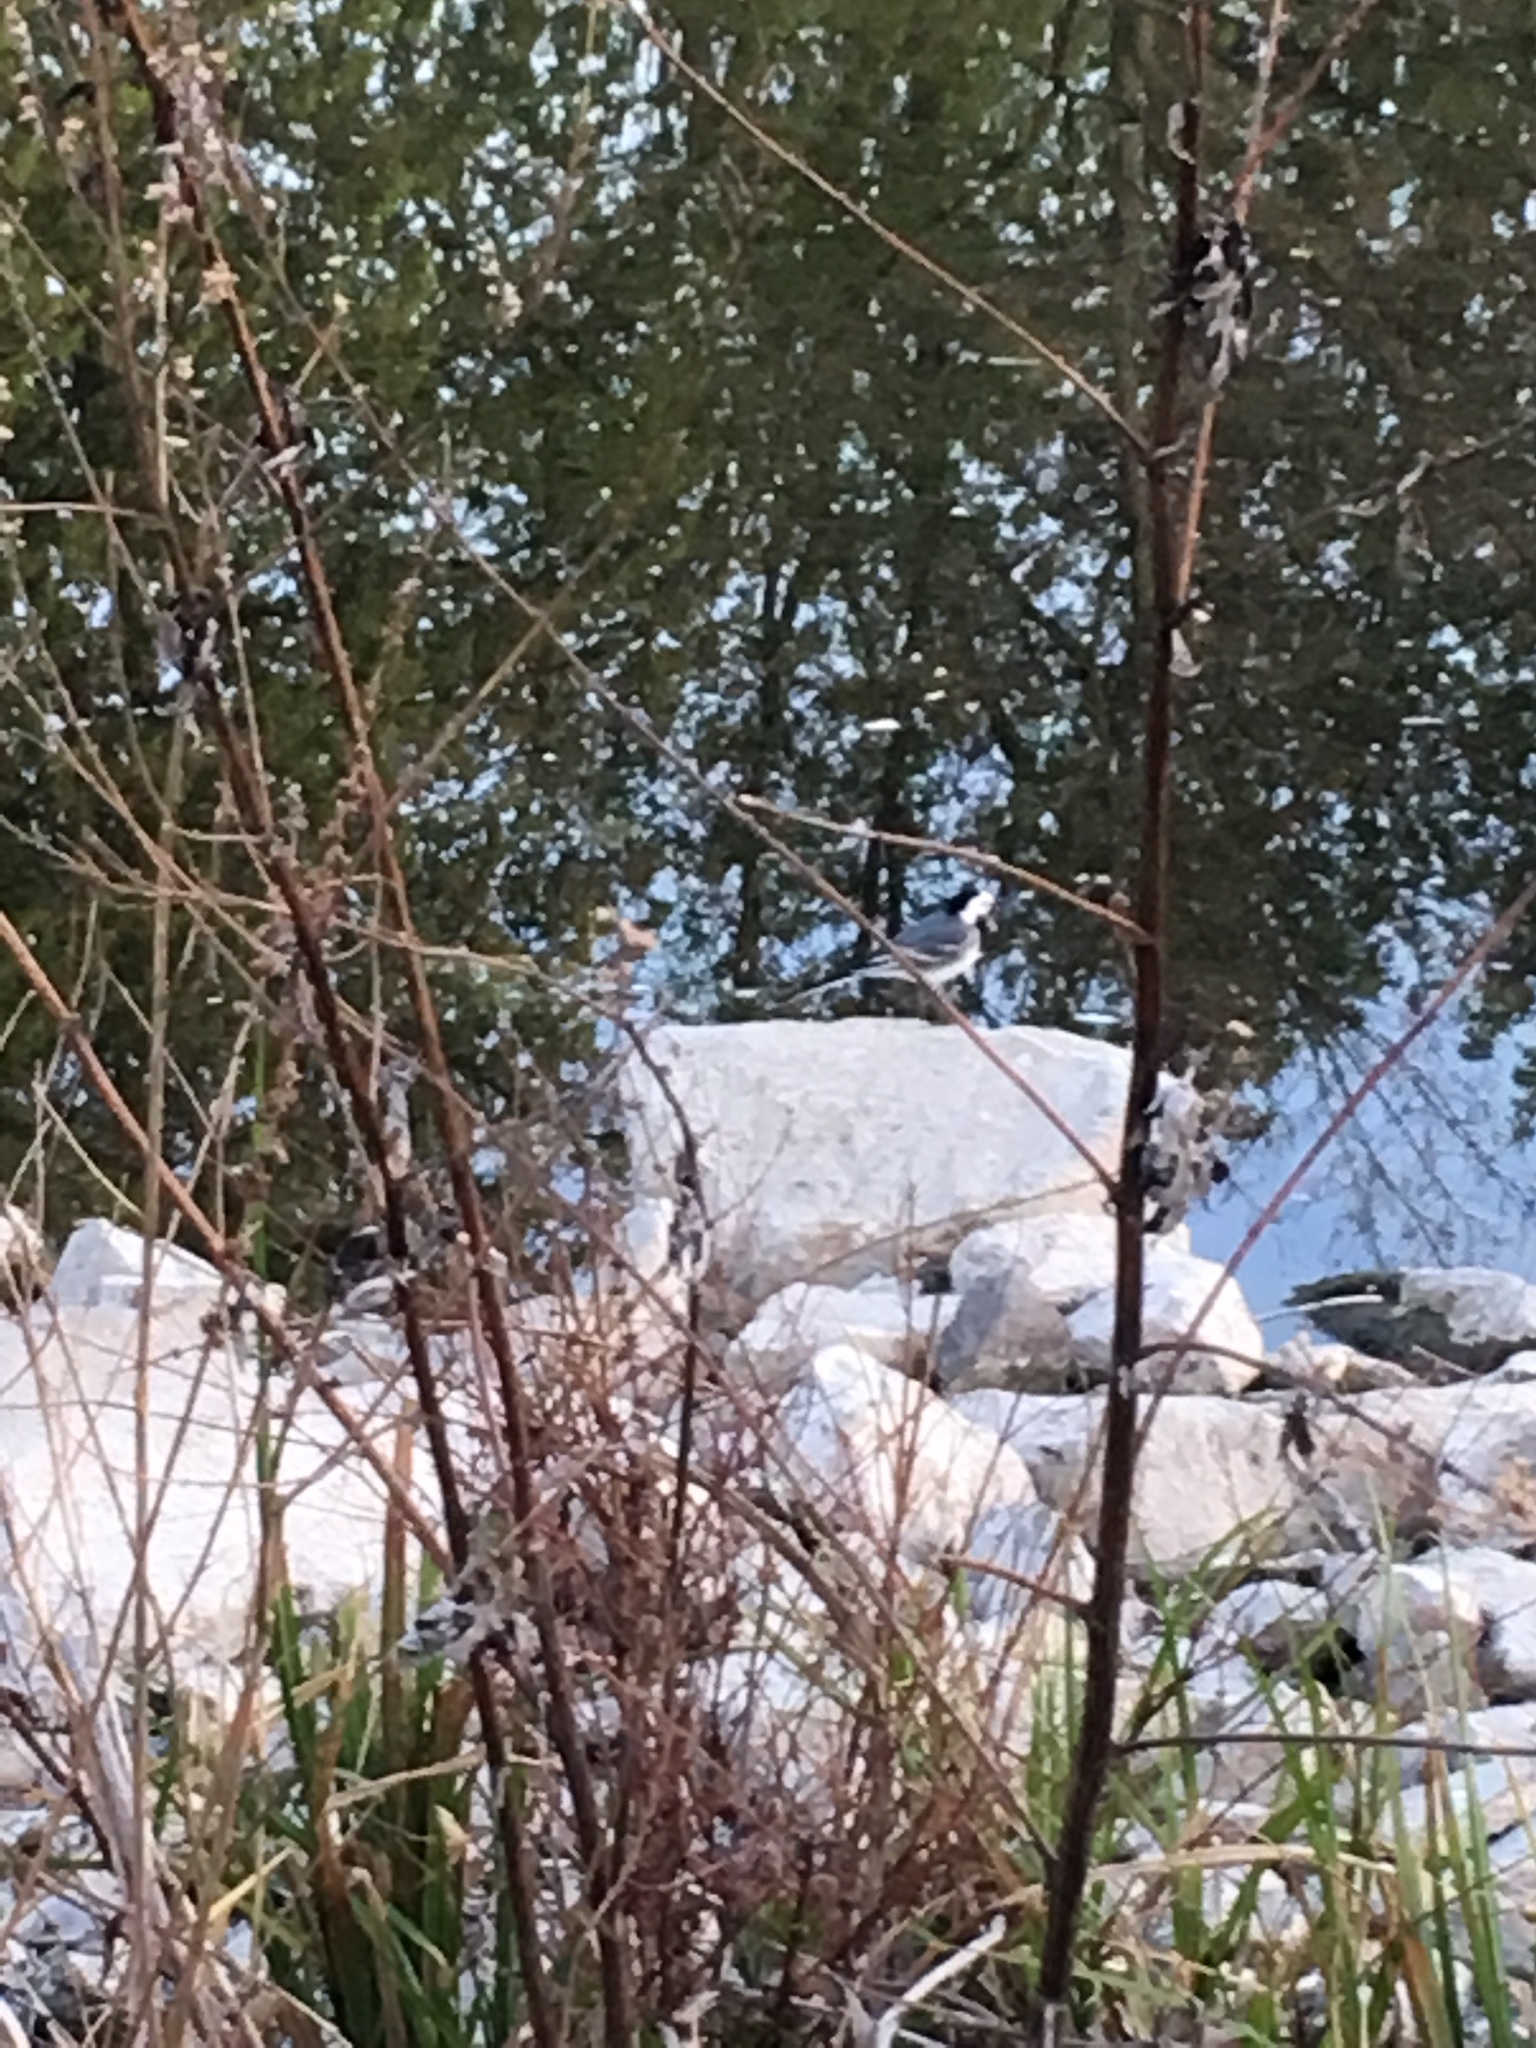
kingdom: Animalia
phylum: Chordata
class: Aves
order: Passeriformes
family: Motacillidae
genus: Motacilla
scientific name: Motacilla alba
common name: White wagtail
